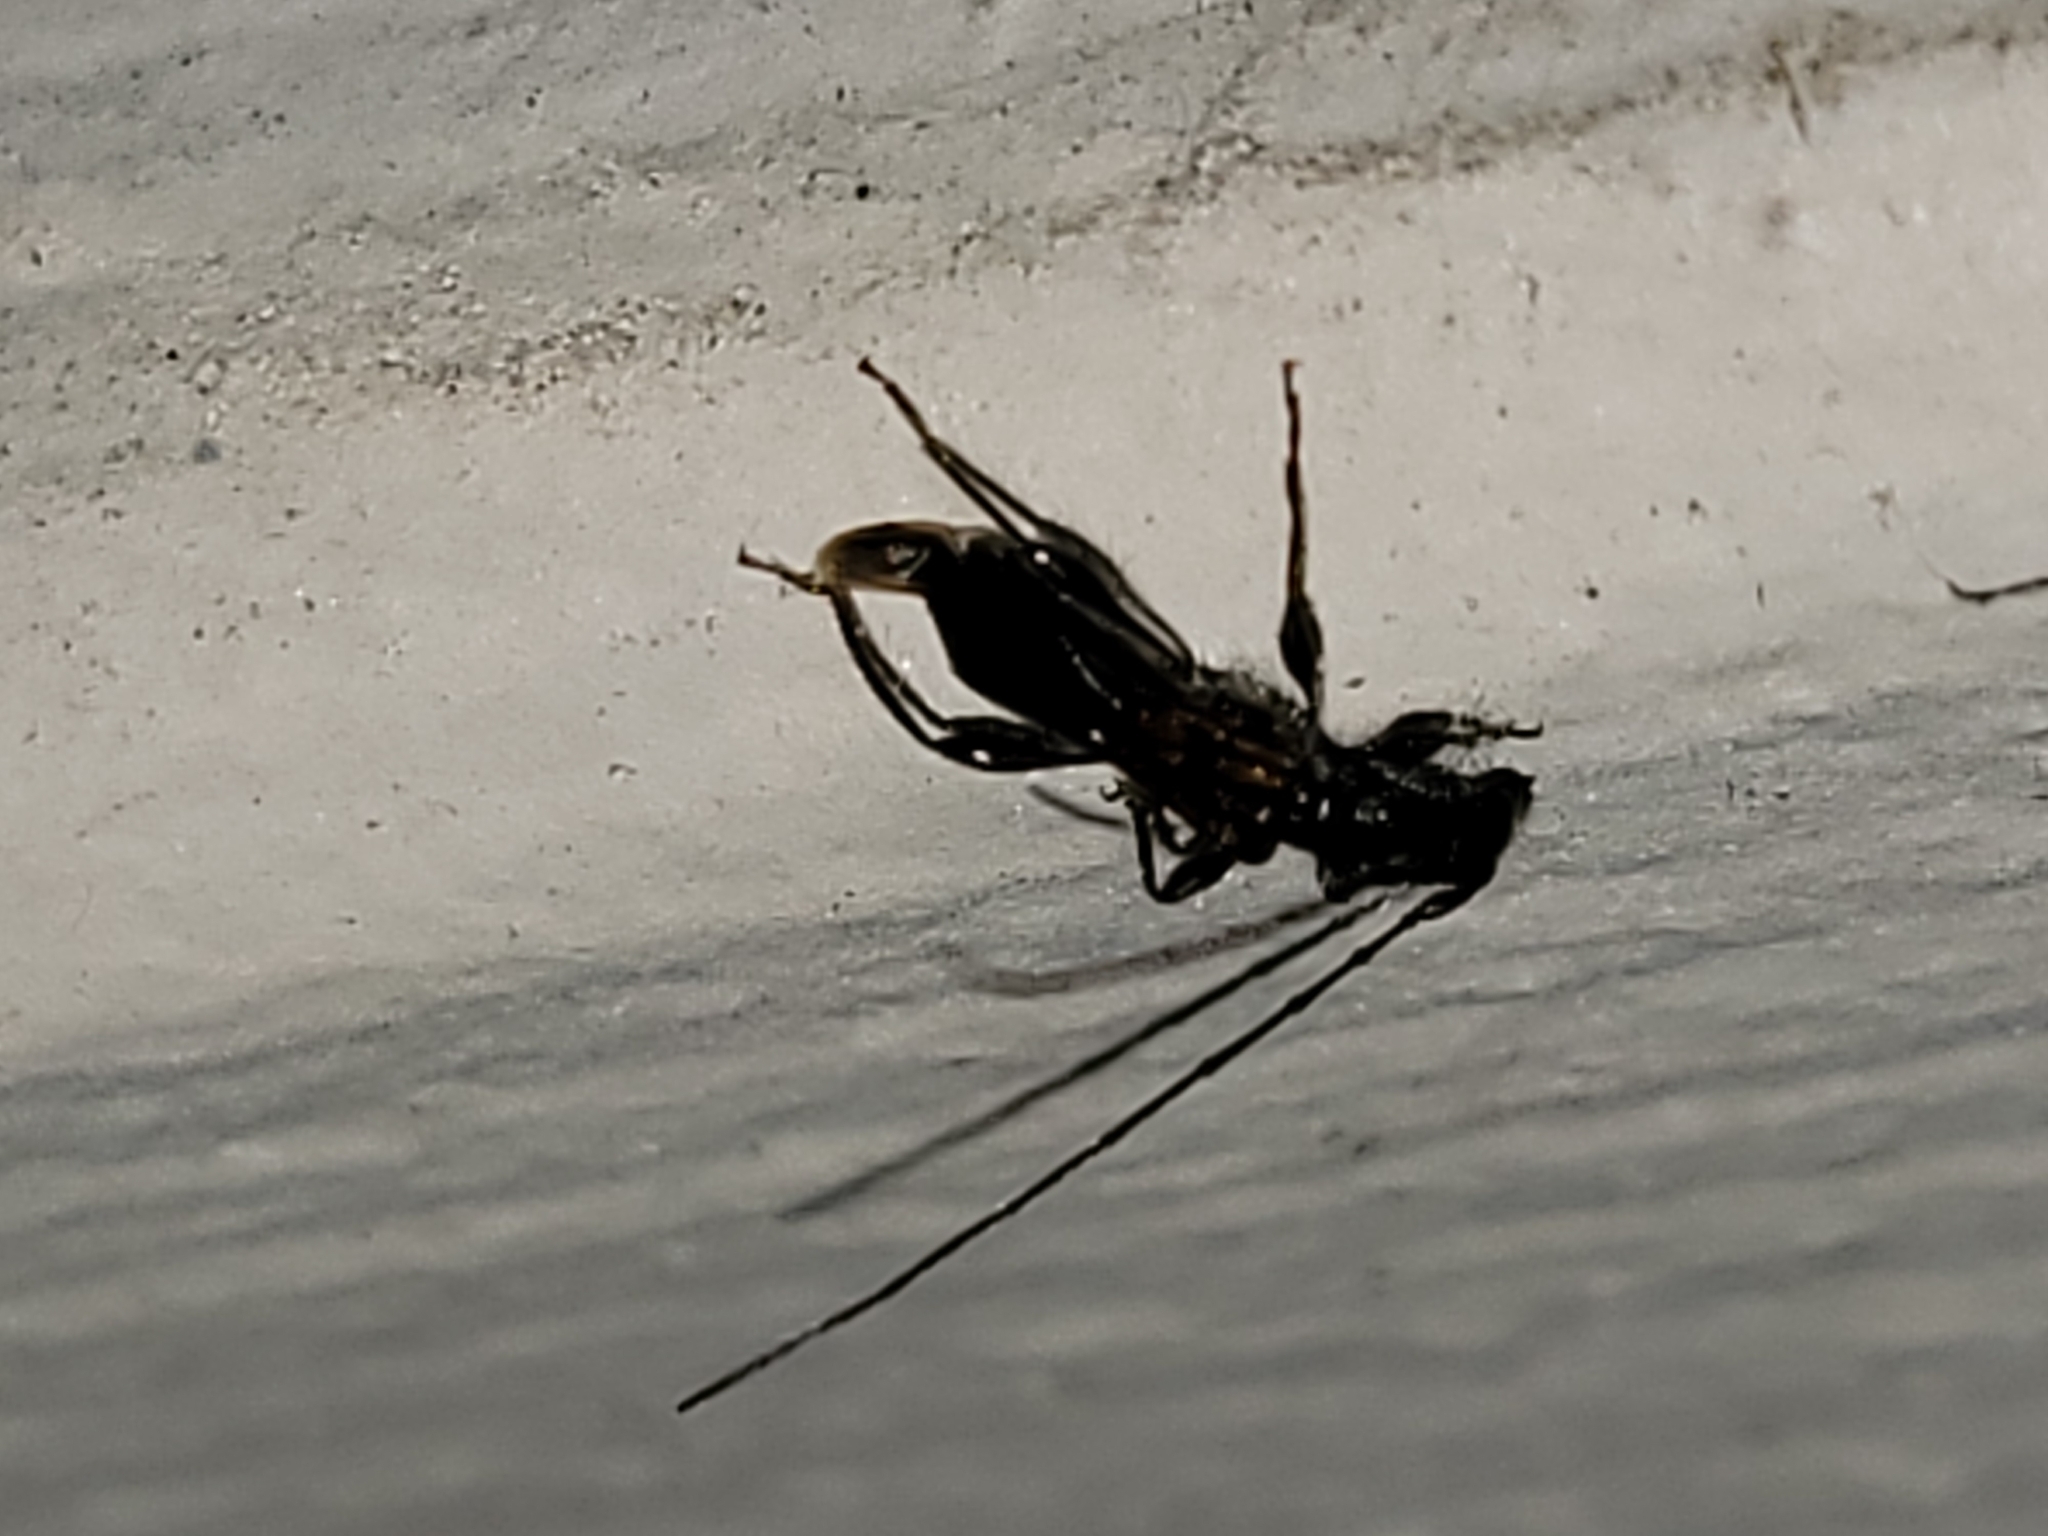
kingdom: Animalia
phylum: Arthropoda
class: Insecta
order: Coleoptera
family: Cerambycidae
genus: Callimoxys
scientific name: Callimoxys fuscipennis
